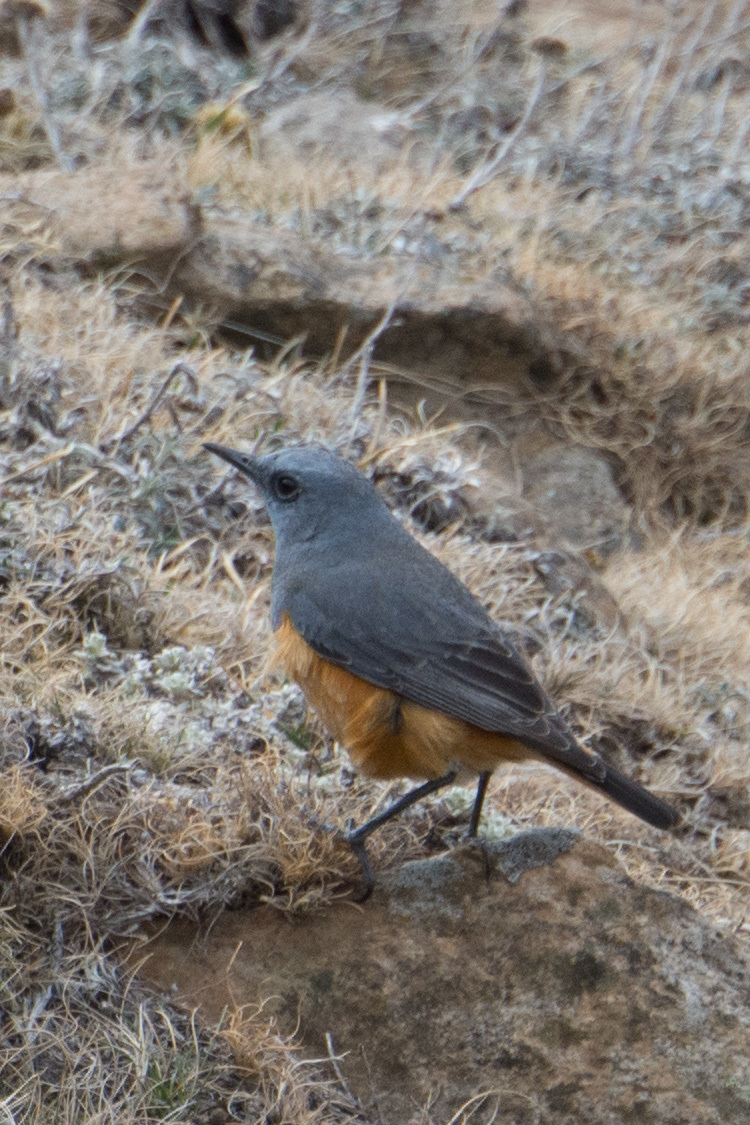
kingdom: Animalia
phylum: Chordata
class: Aves
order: Passeriformes
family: Muscicapidae
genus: Monticola
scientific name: Monticola explorator
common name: Sentinel rock thrush
